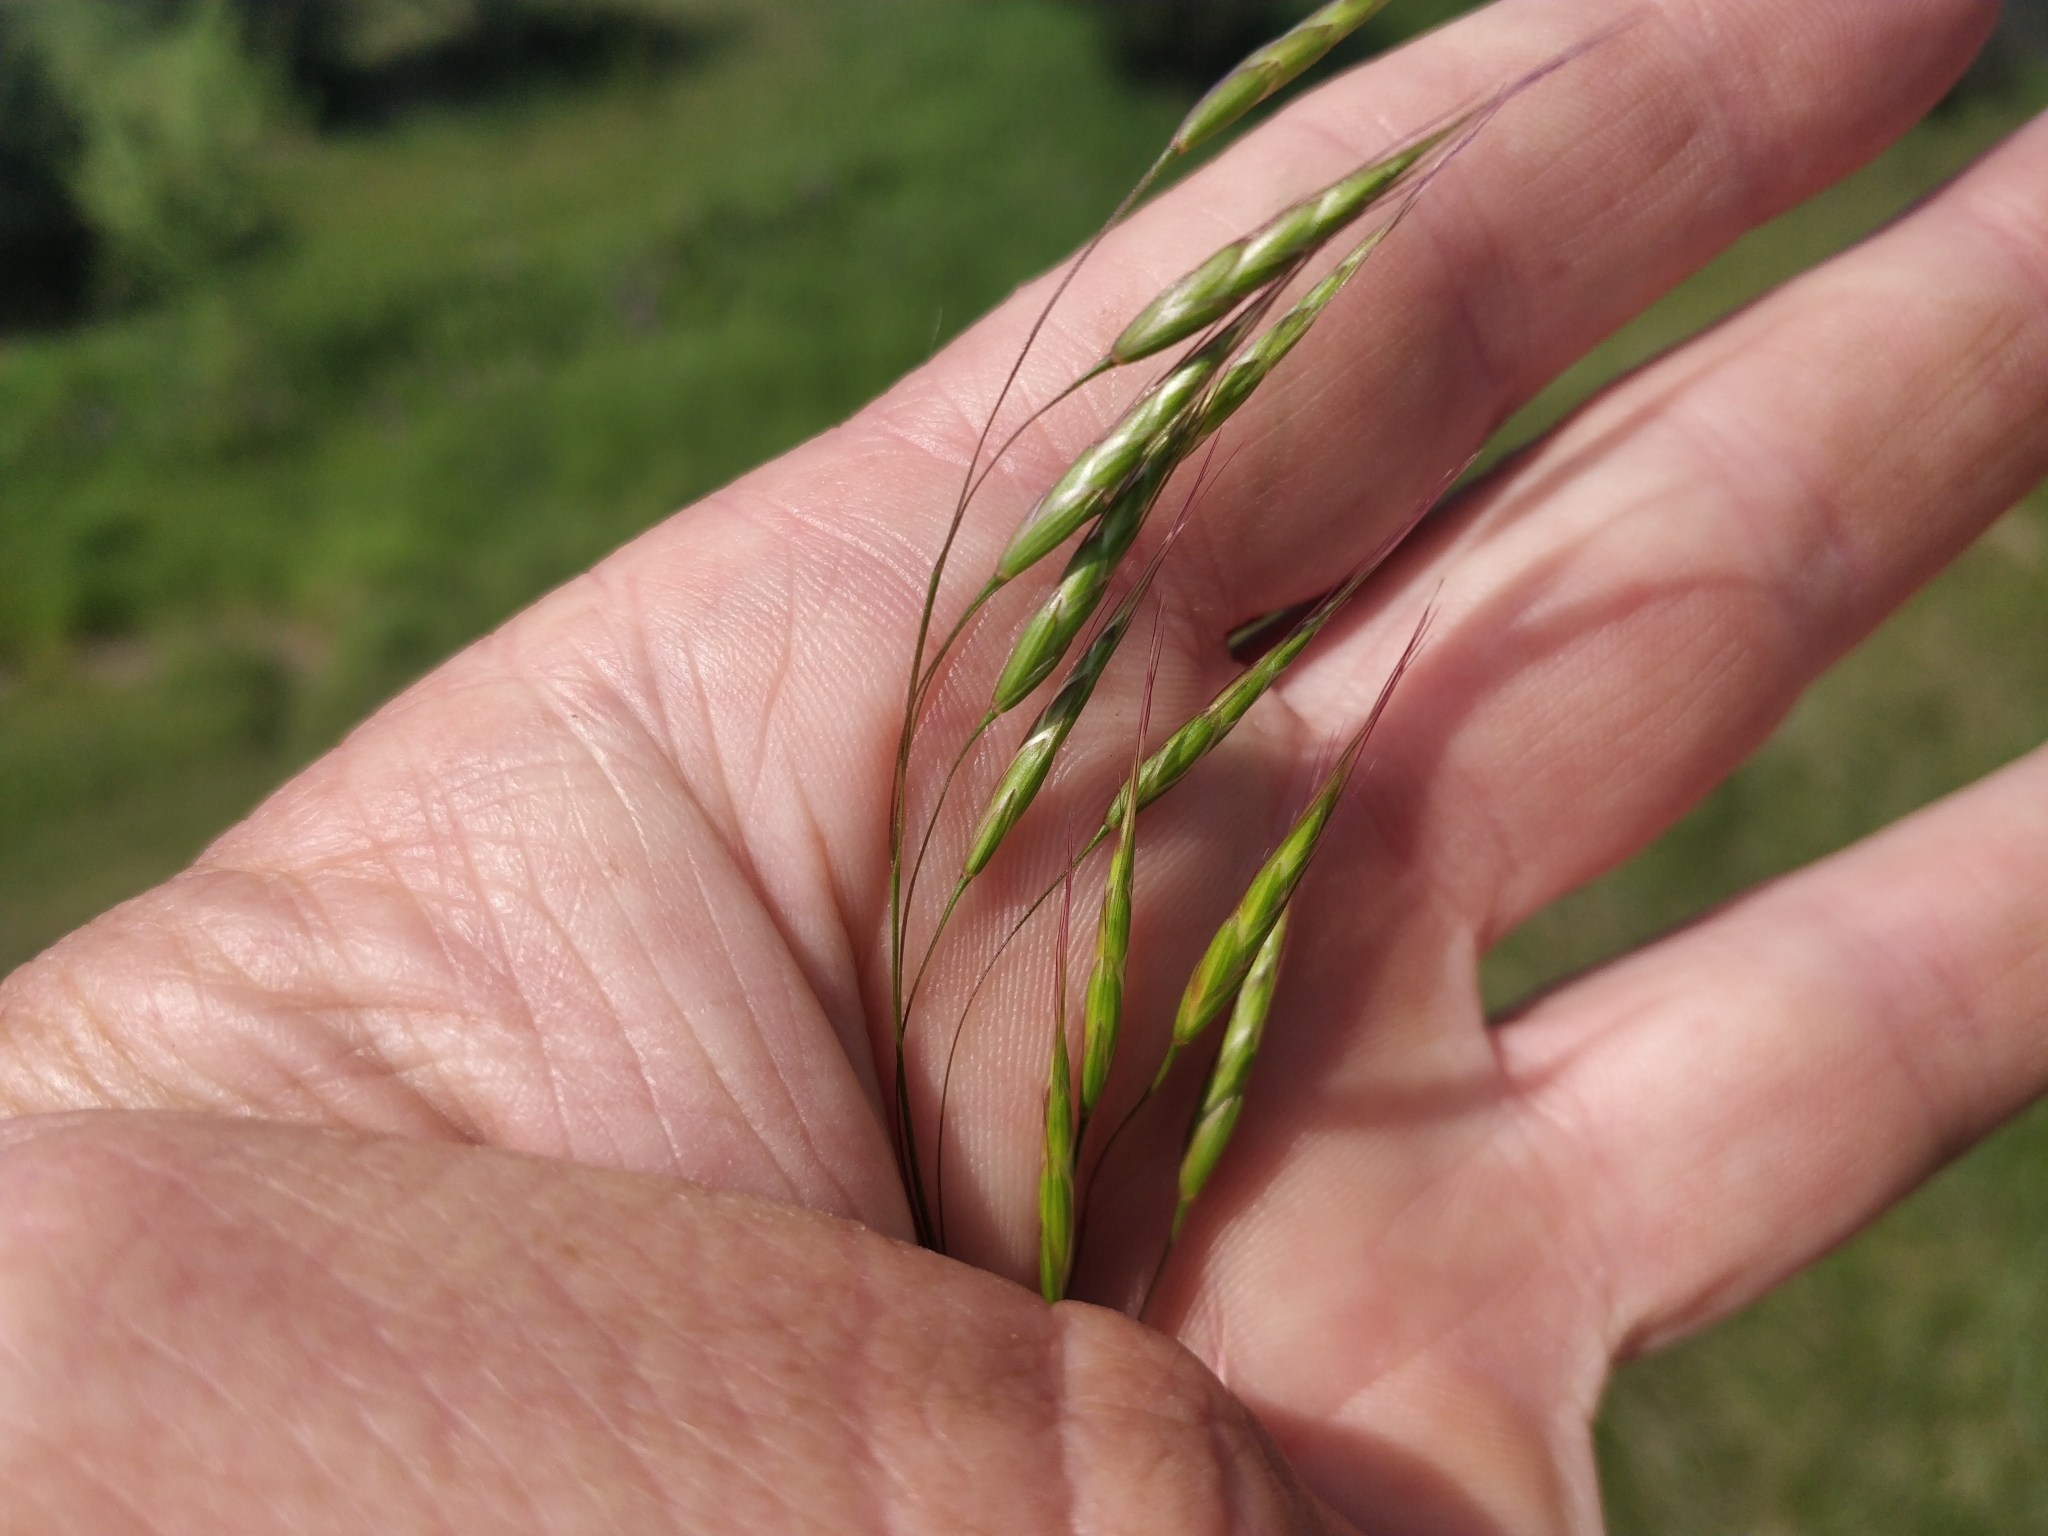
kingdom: Plantae
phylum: Tracheophyta
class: Liliopsida
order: Poales
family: Poaceae
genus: Bromus
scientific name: Bromus japonicus
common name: Japanese brome
